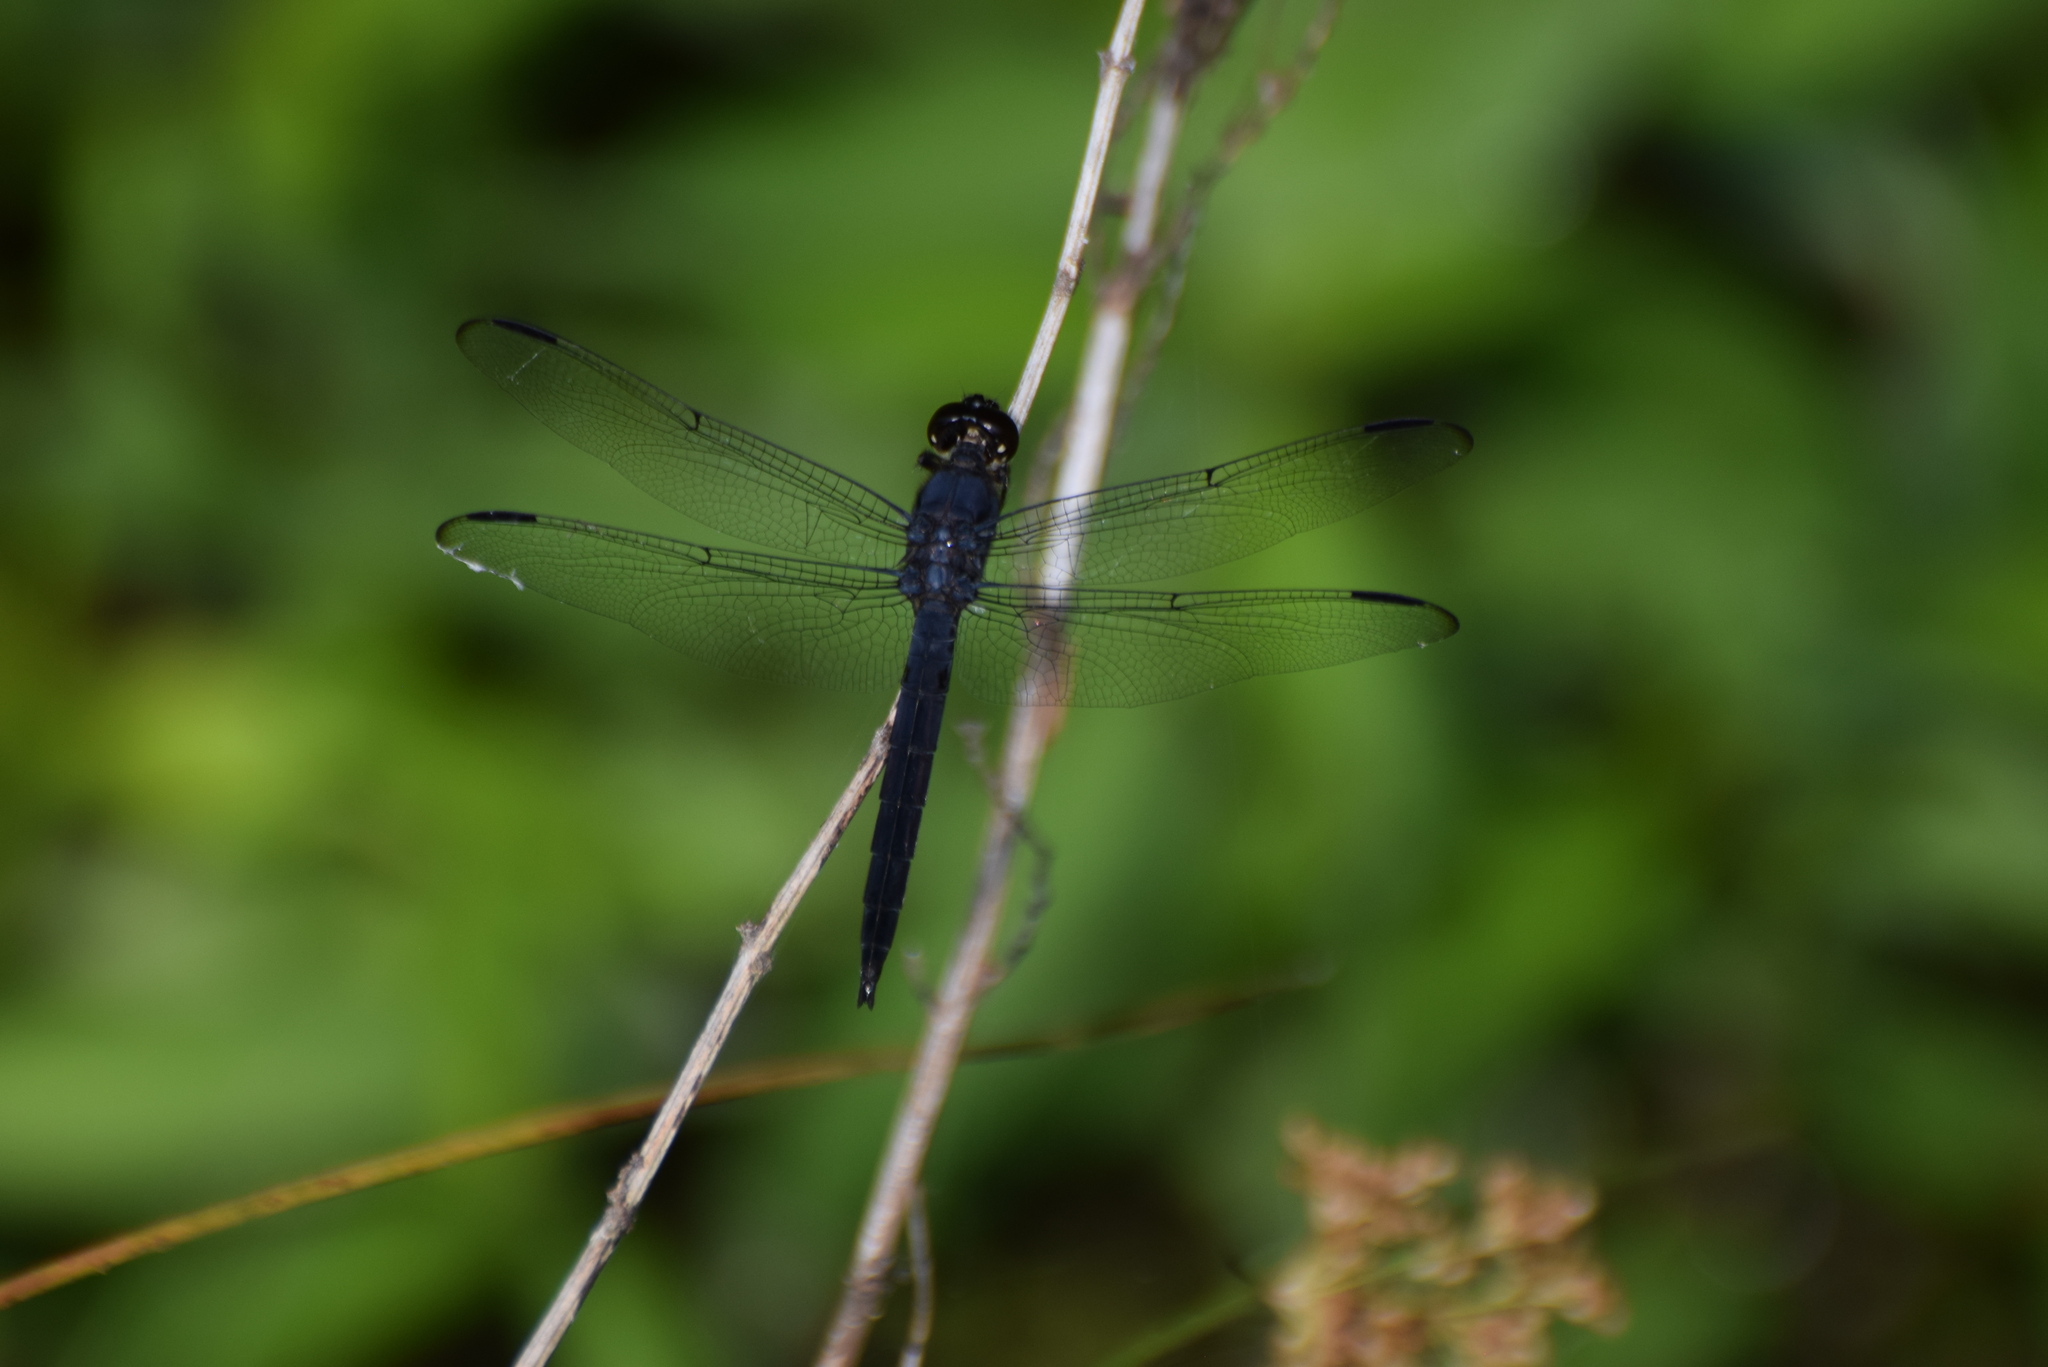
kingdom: Animalia
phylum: Arthropoda
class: Insecta
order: Odonata
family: Libellulidae
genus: Libellula
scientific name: Libellula incesta
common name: Slaty skimmer
